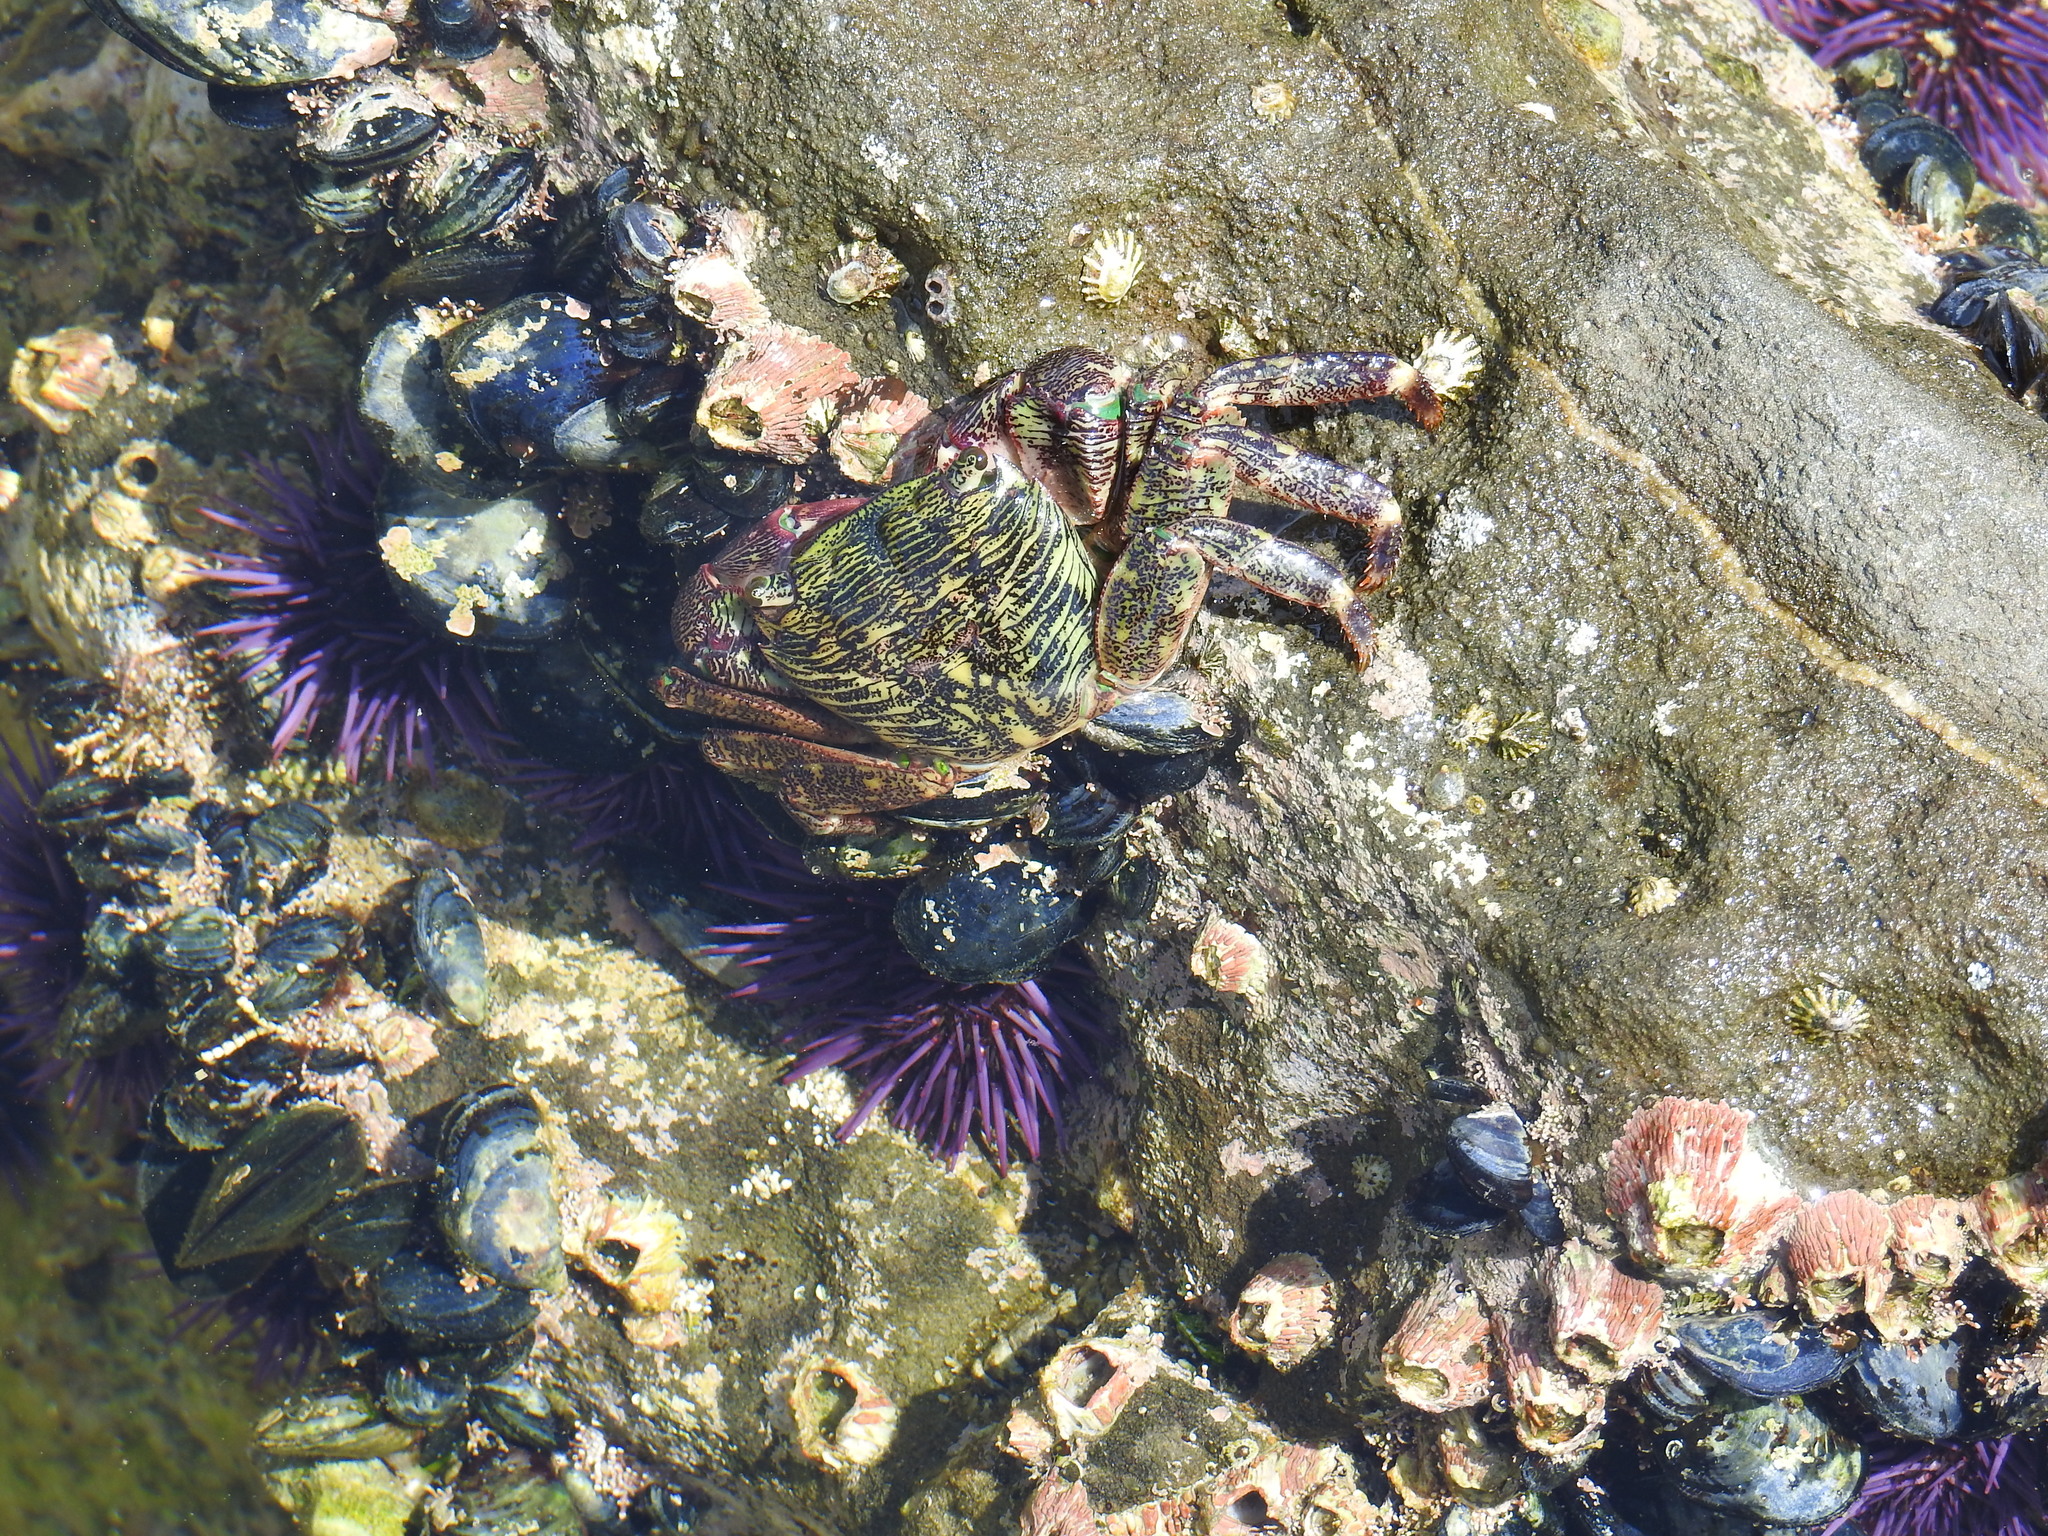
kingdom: Animalia
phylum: Arthropoda
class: Malacostraca
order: Decapoda
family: Grapsidae
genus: Pachygrapsus
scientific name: Pachygrapsus crassipes
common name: Striped shore crab
